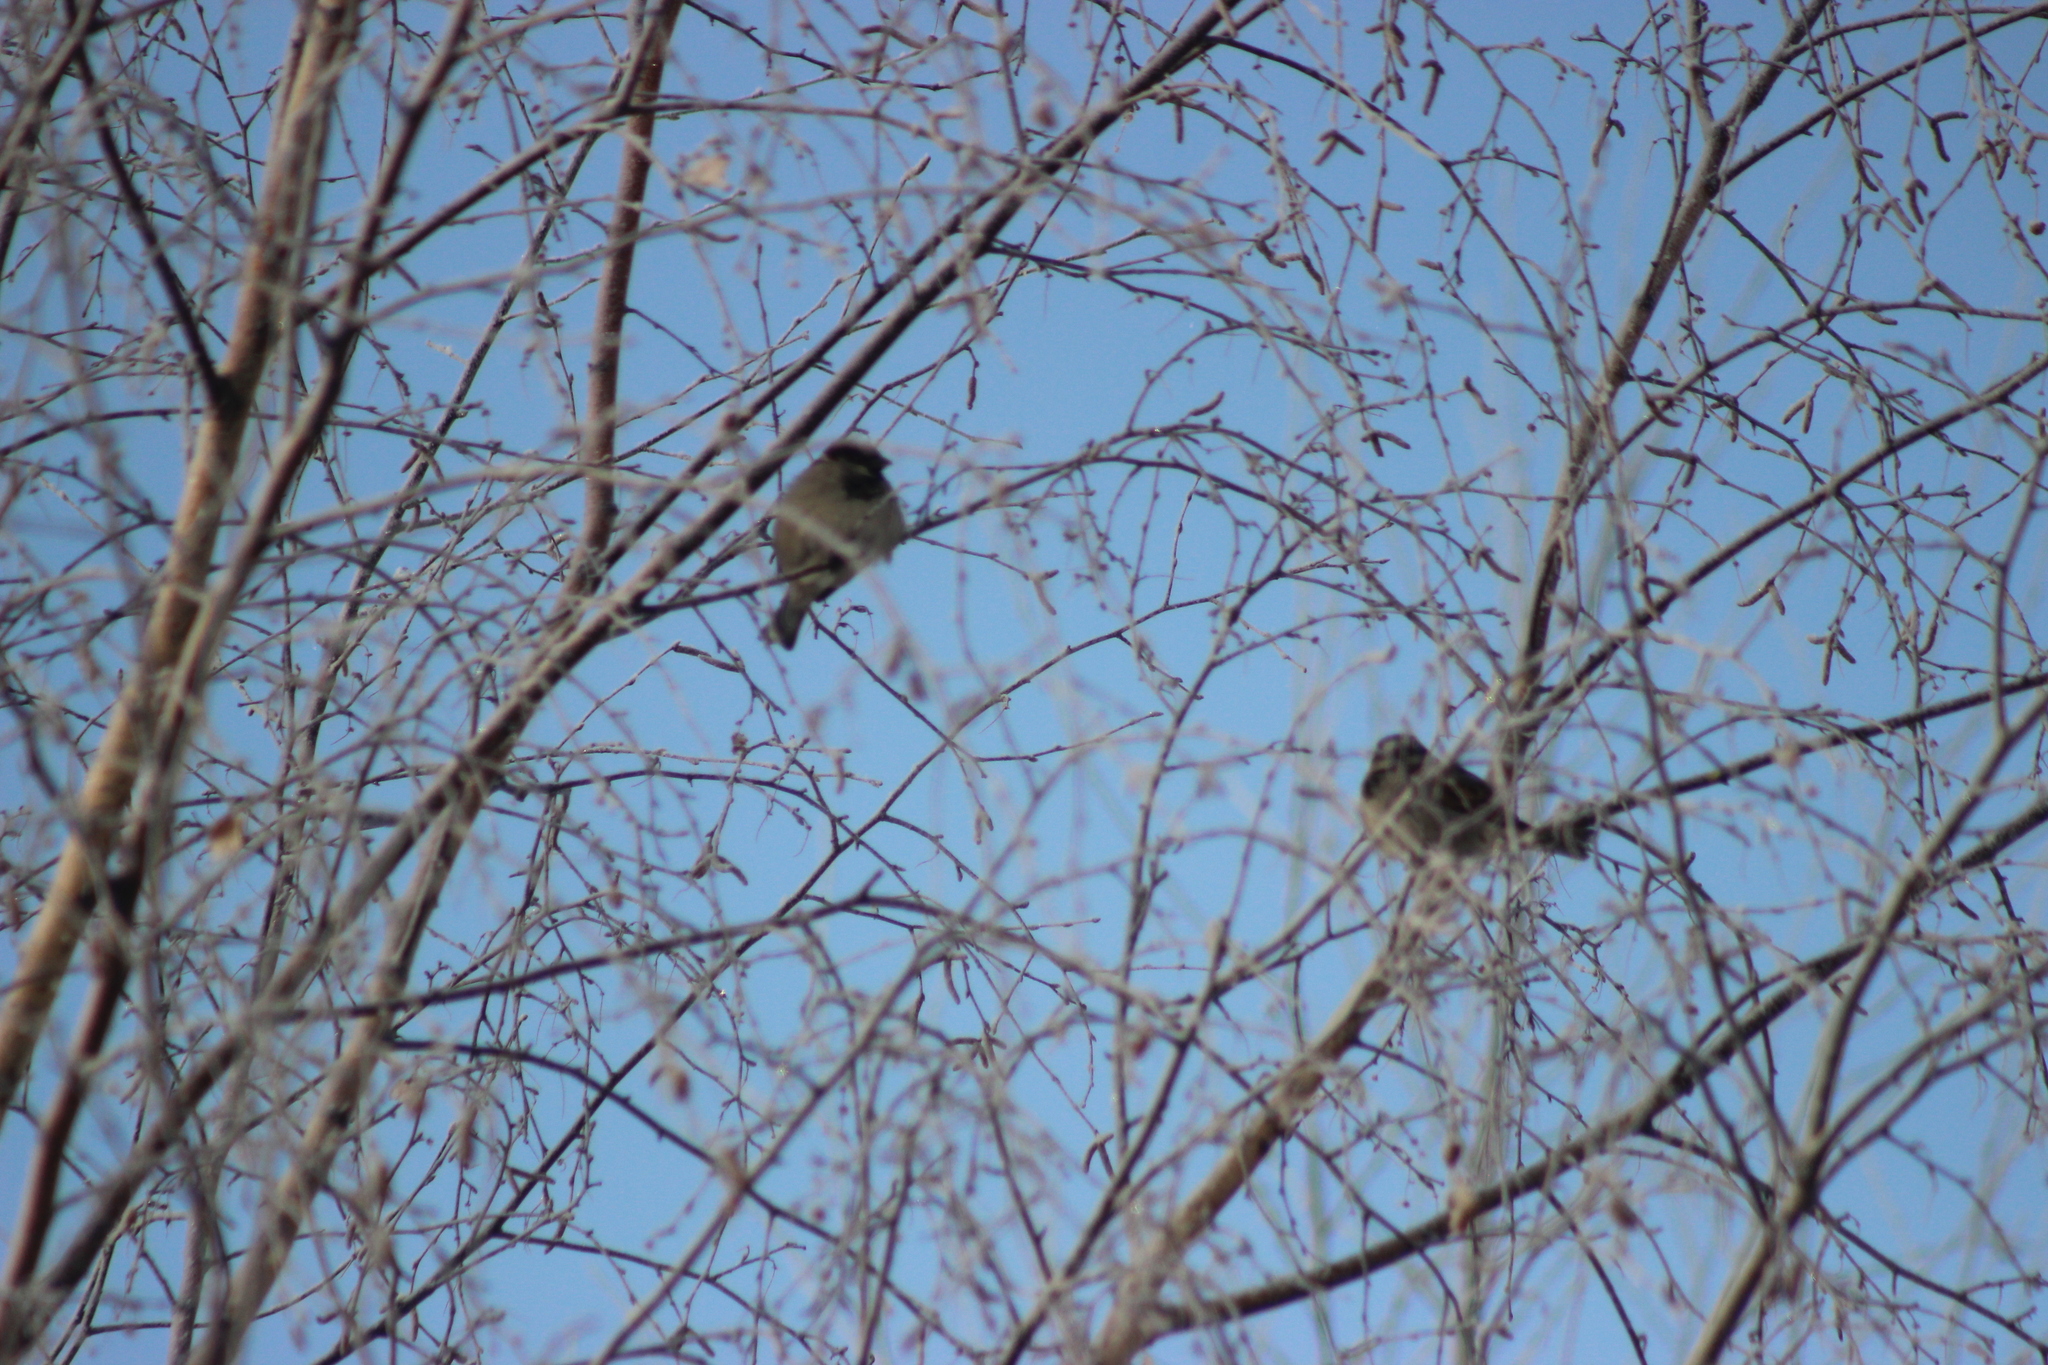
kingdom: Animalia
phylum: Chordata
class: Aves
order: Passeriformes
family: Passeridae
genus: Passer
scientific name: Passer domesticus
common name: House sparrow
